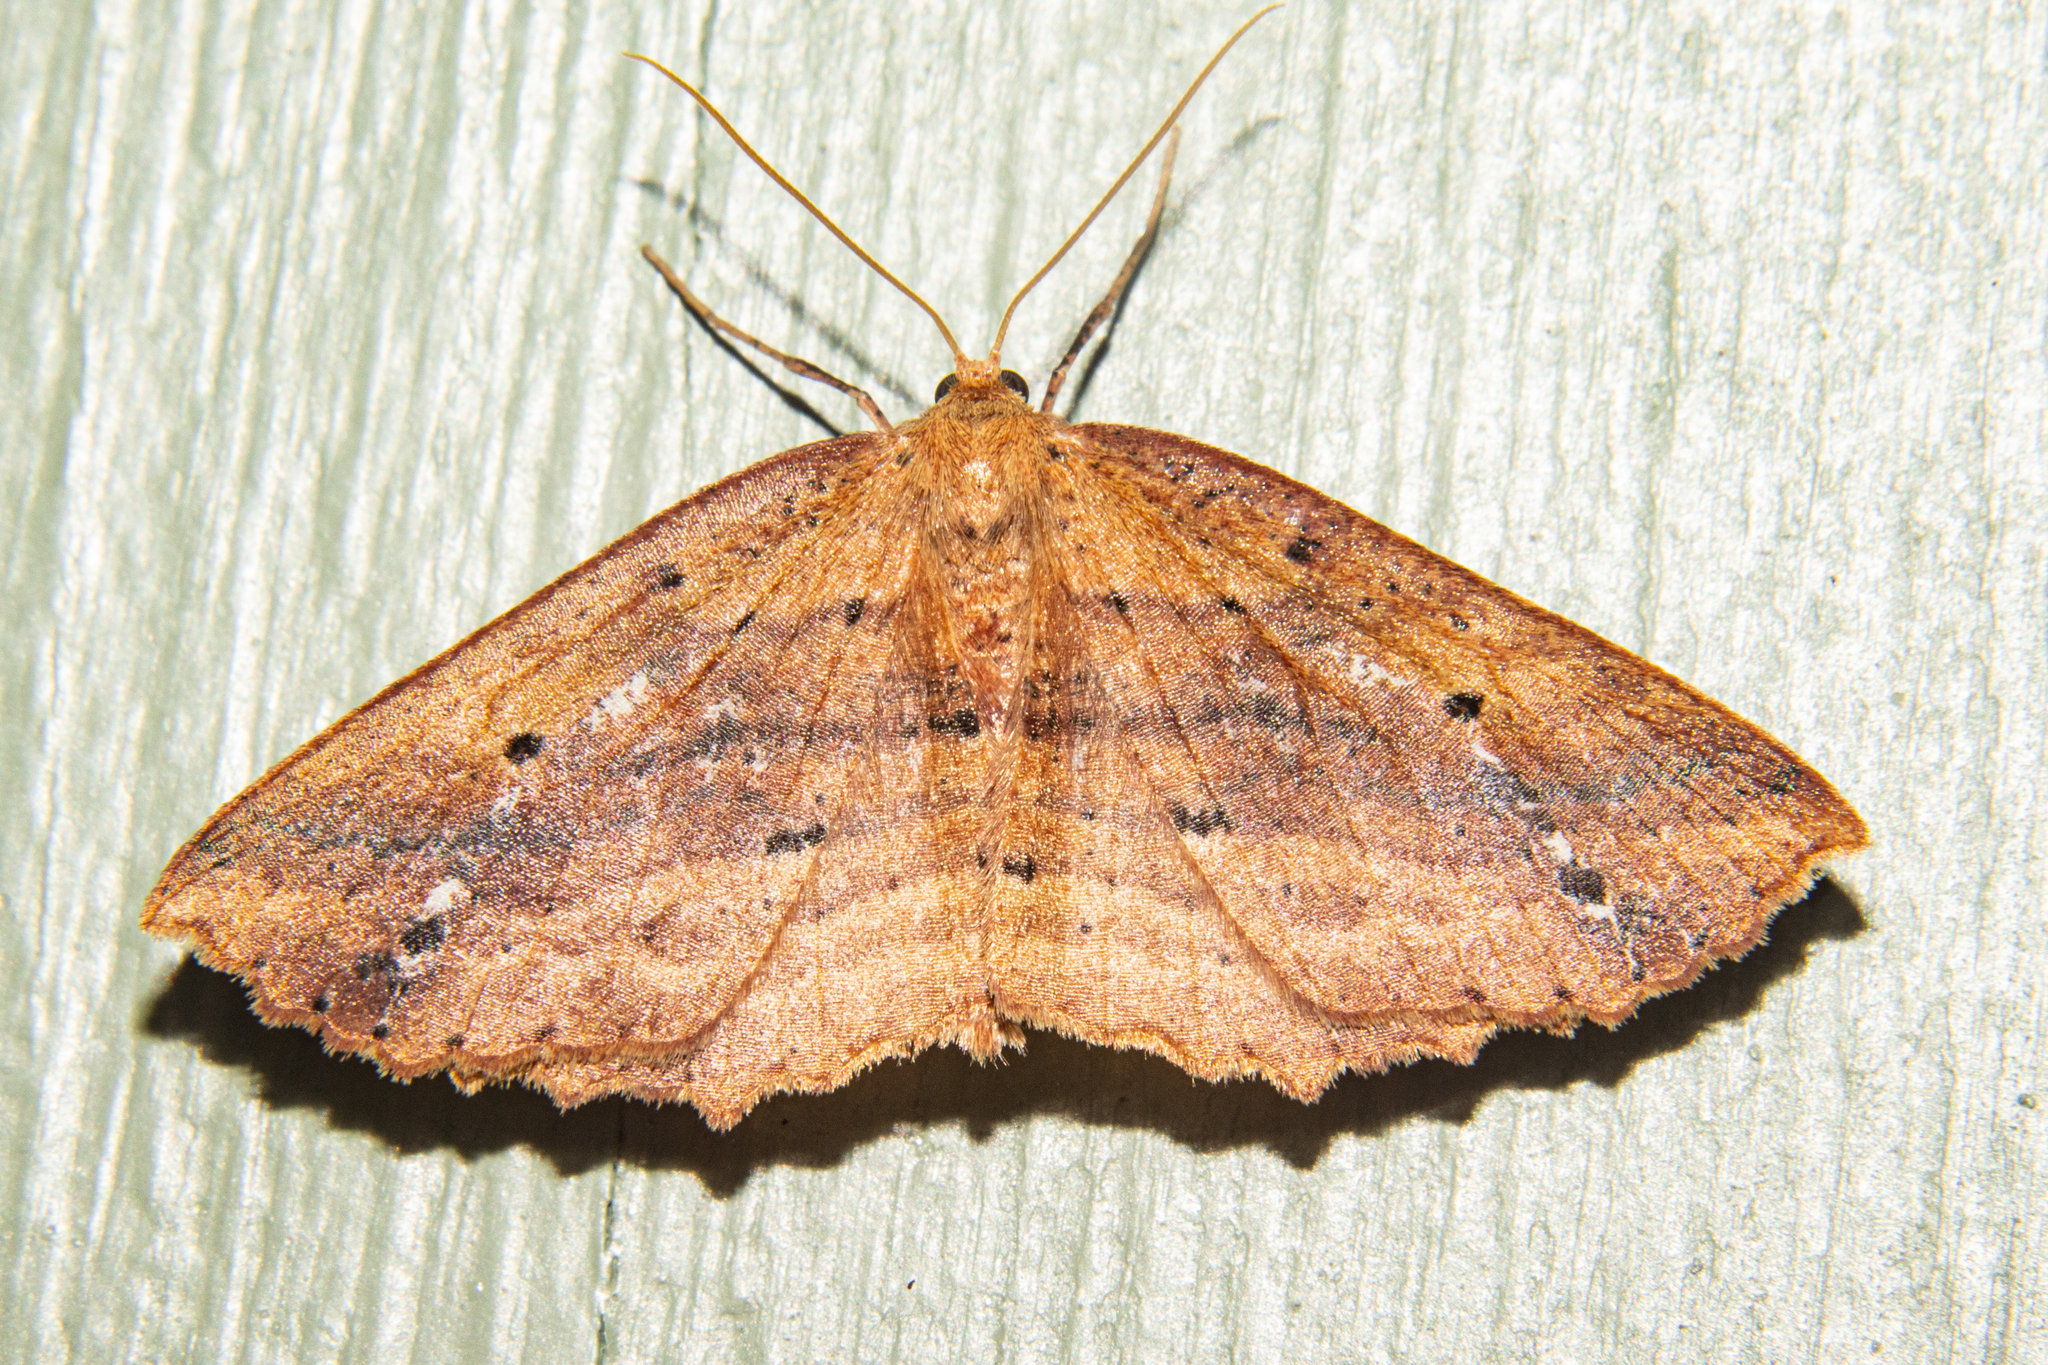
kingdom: Animalia
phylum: Arthropoda
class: Insecta
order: Lepidoptera
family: Geometridae
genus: Xyridacma
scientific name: Xyridacma veronicae
